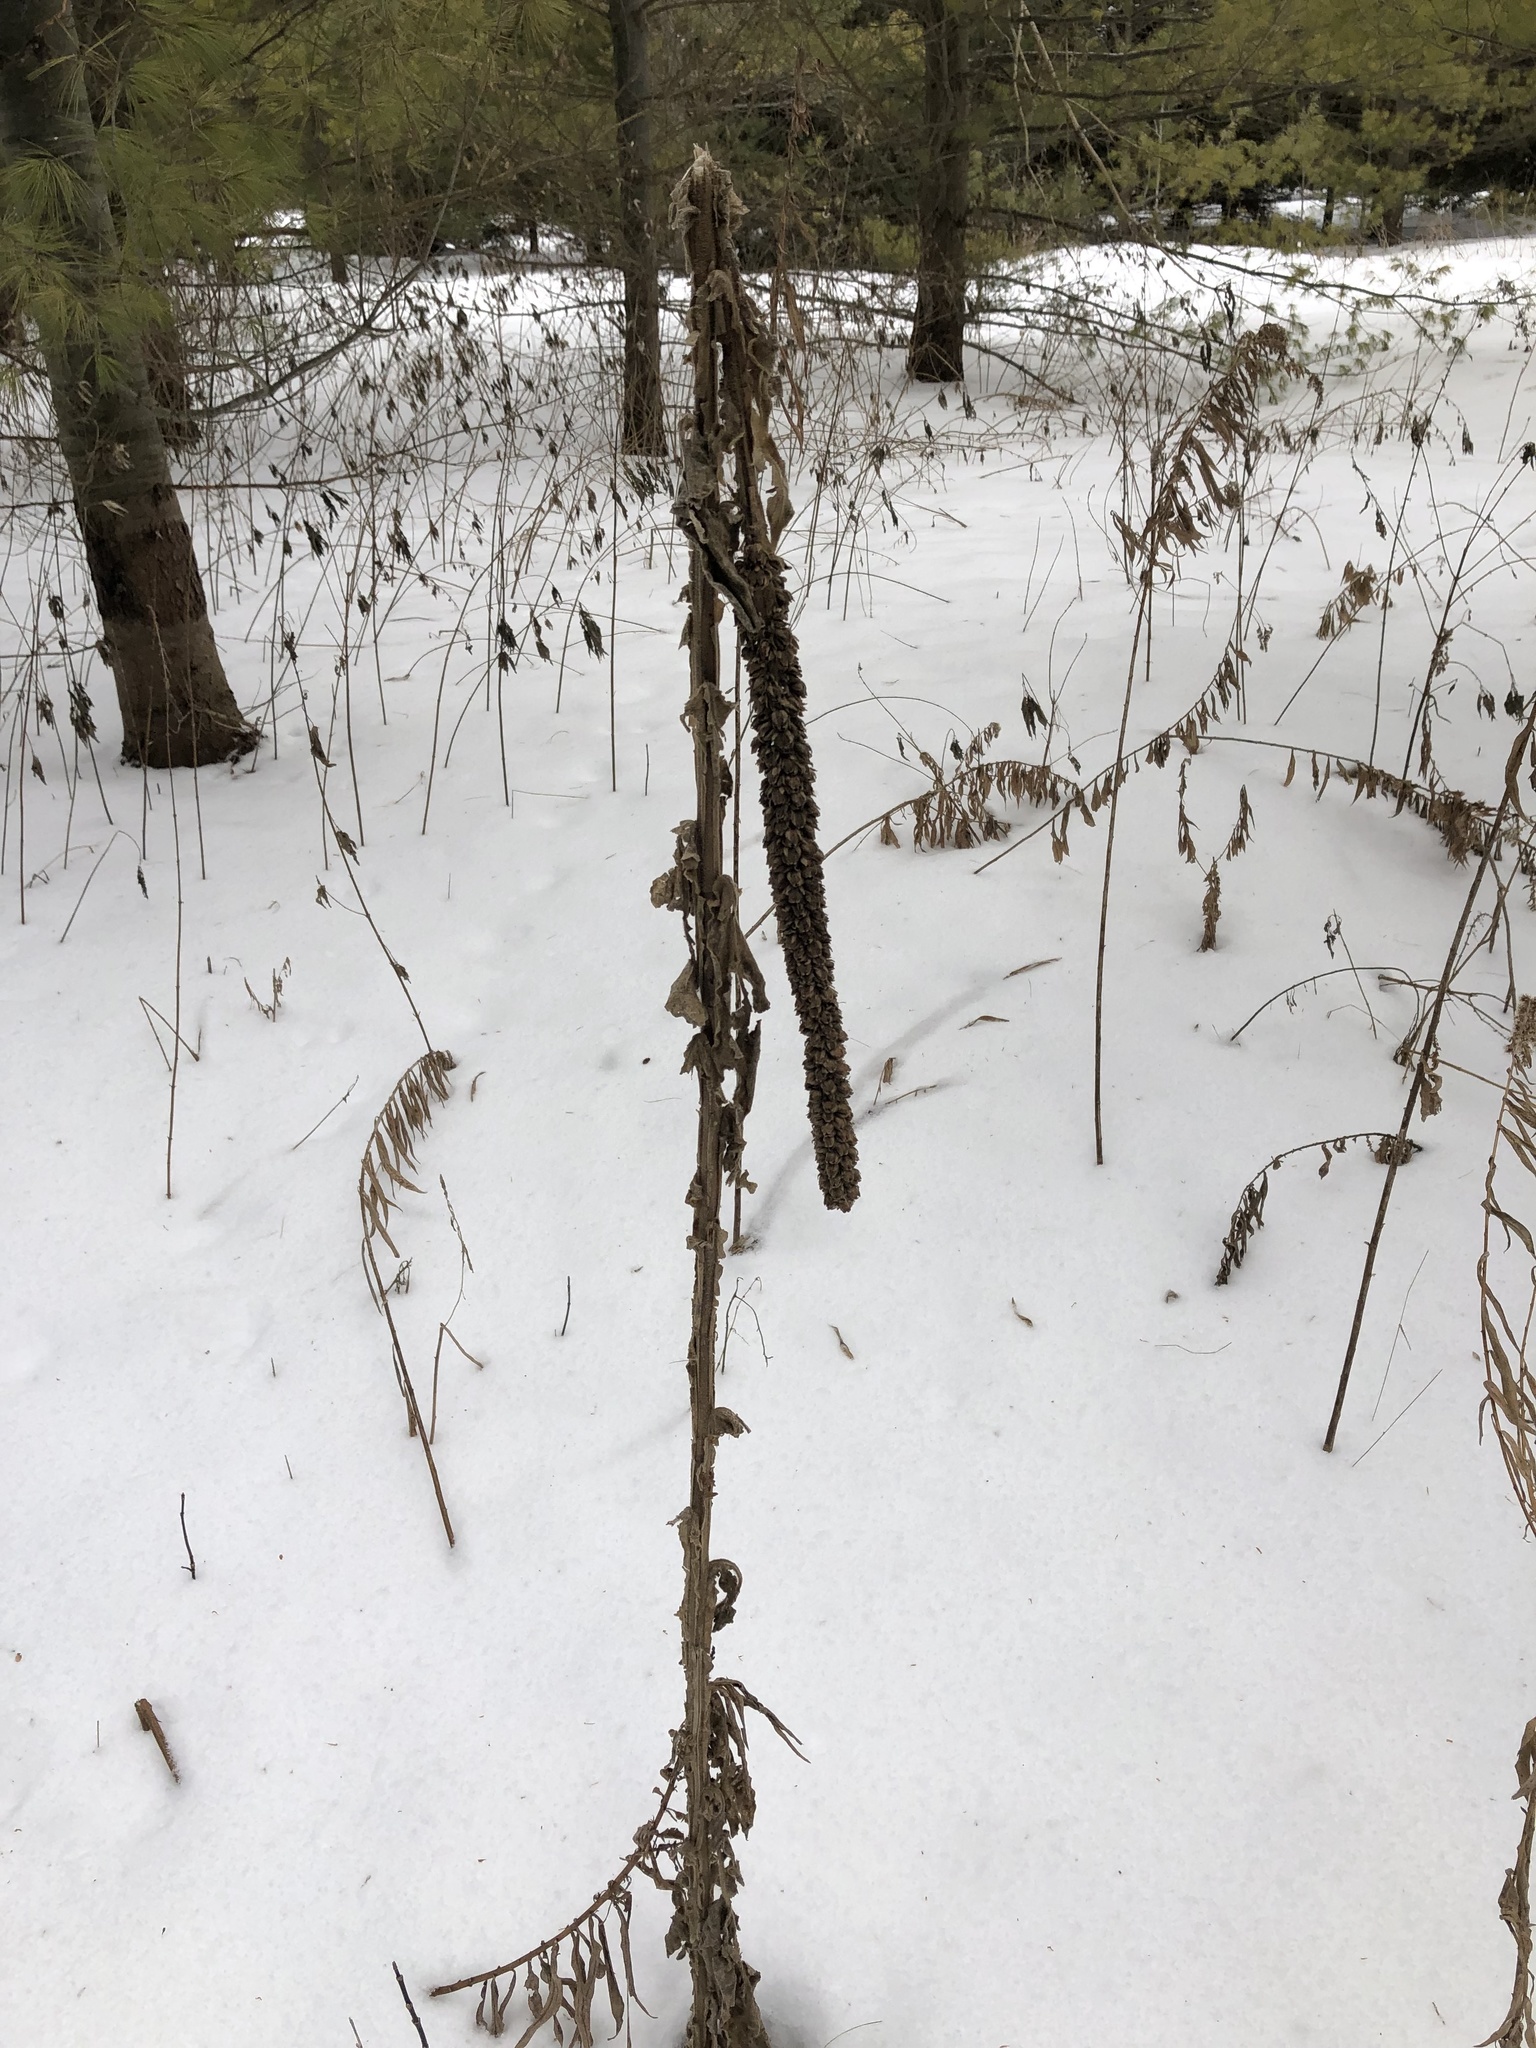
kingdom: Plantae
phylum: Tracheophyta
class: Magnoliopsida
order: Lamiales
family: Scrophulariaceae
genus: Verbascum
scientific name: Verbascum thapsus
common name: Common mullein
